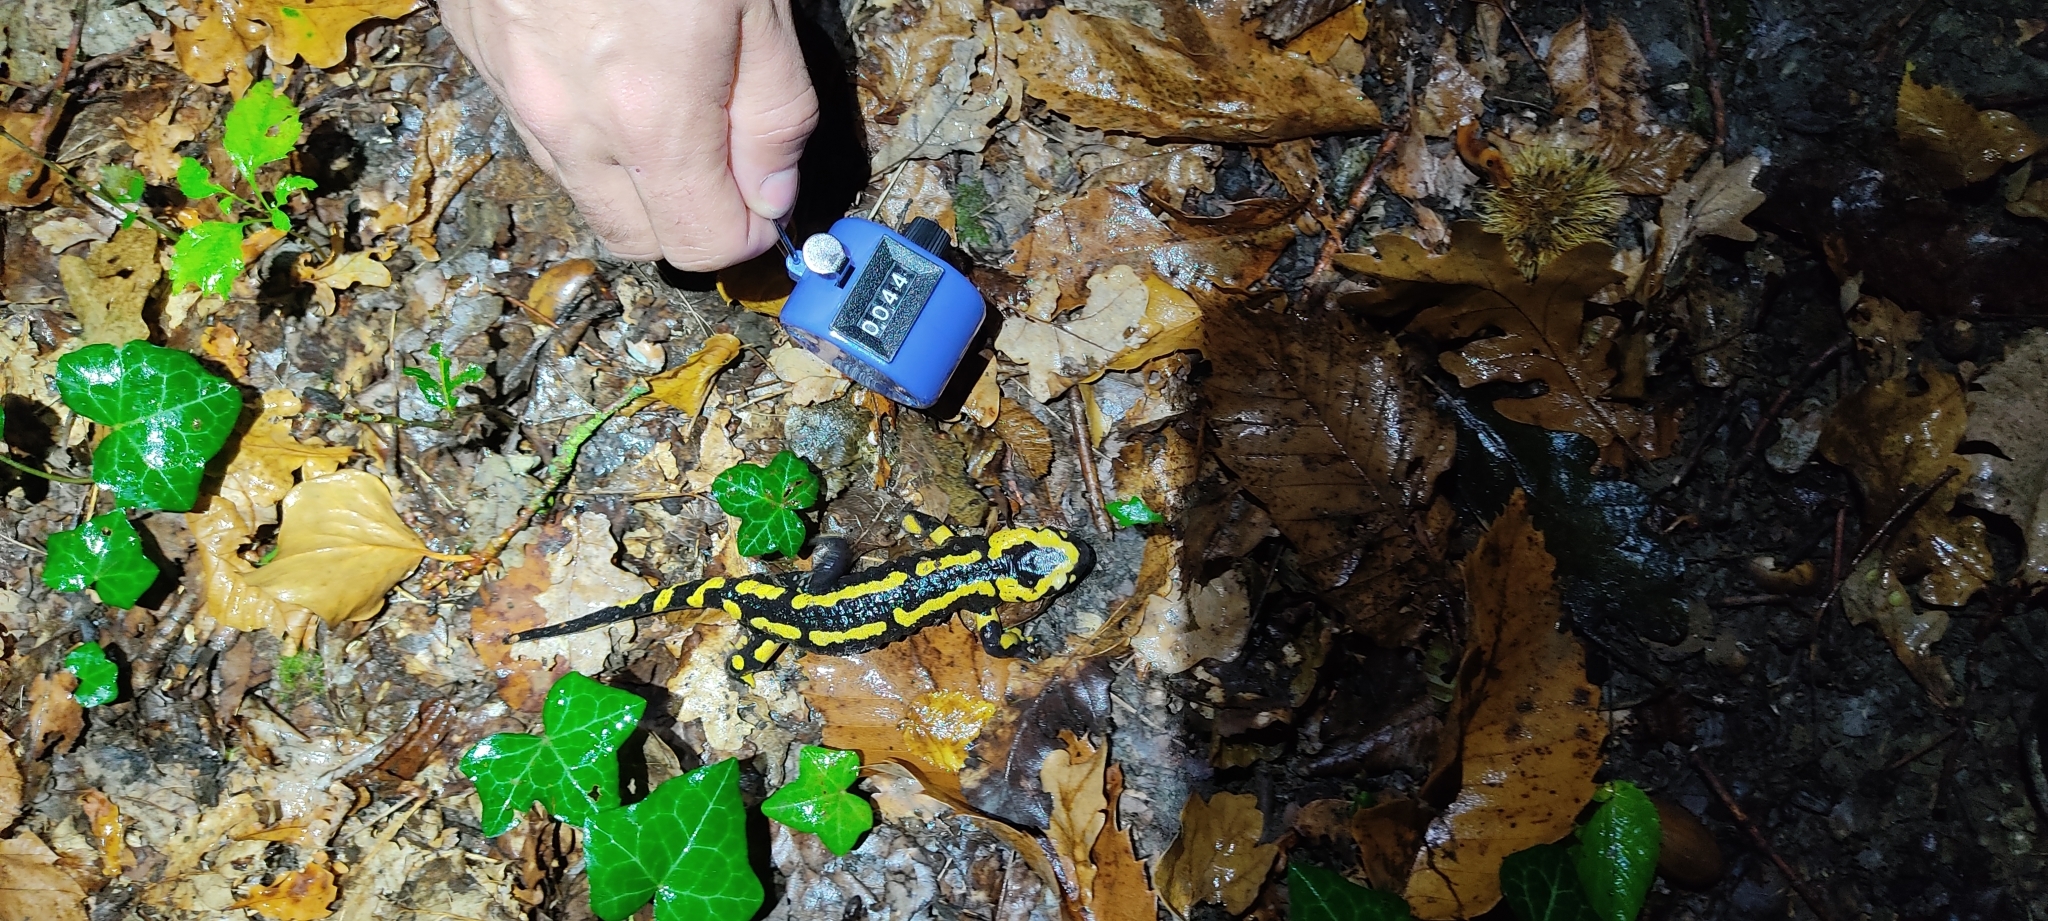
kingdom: Animalia
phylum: Chordata
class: Amphibia
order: Caudata
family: Salamandridae
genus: Salamandra
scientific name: Salamandra salamandra
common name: Fire salamander
